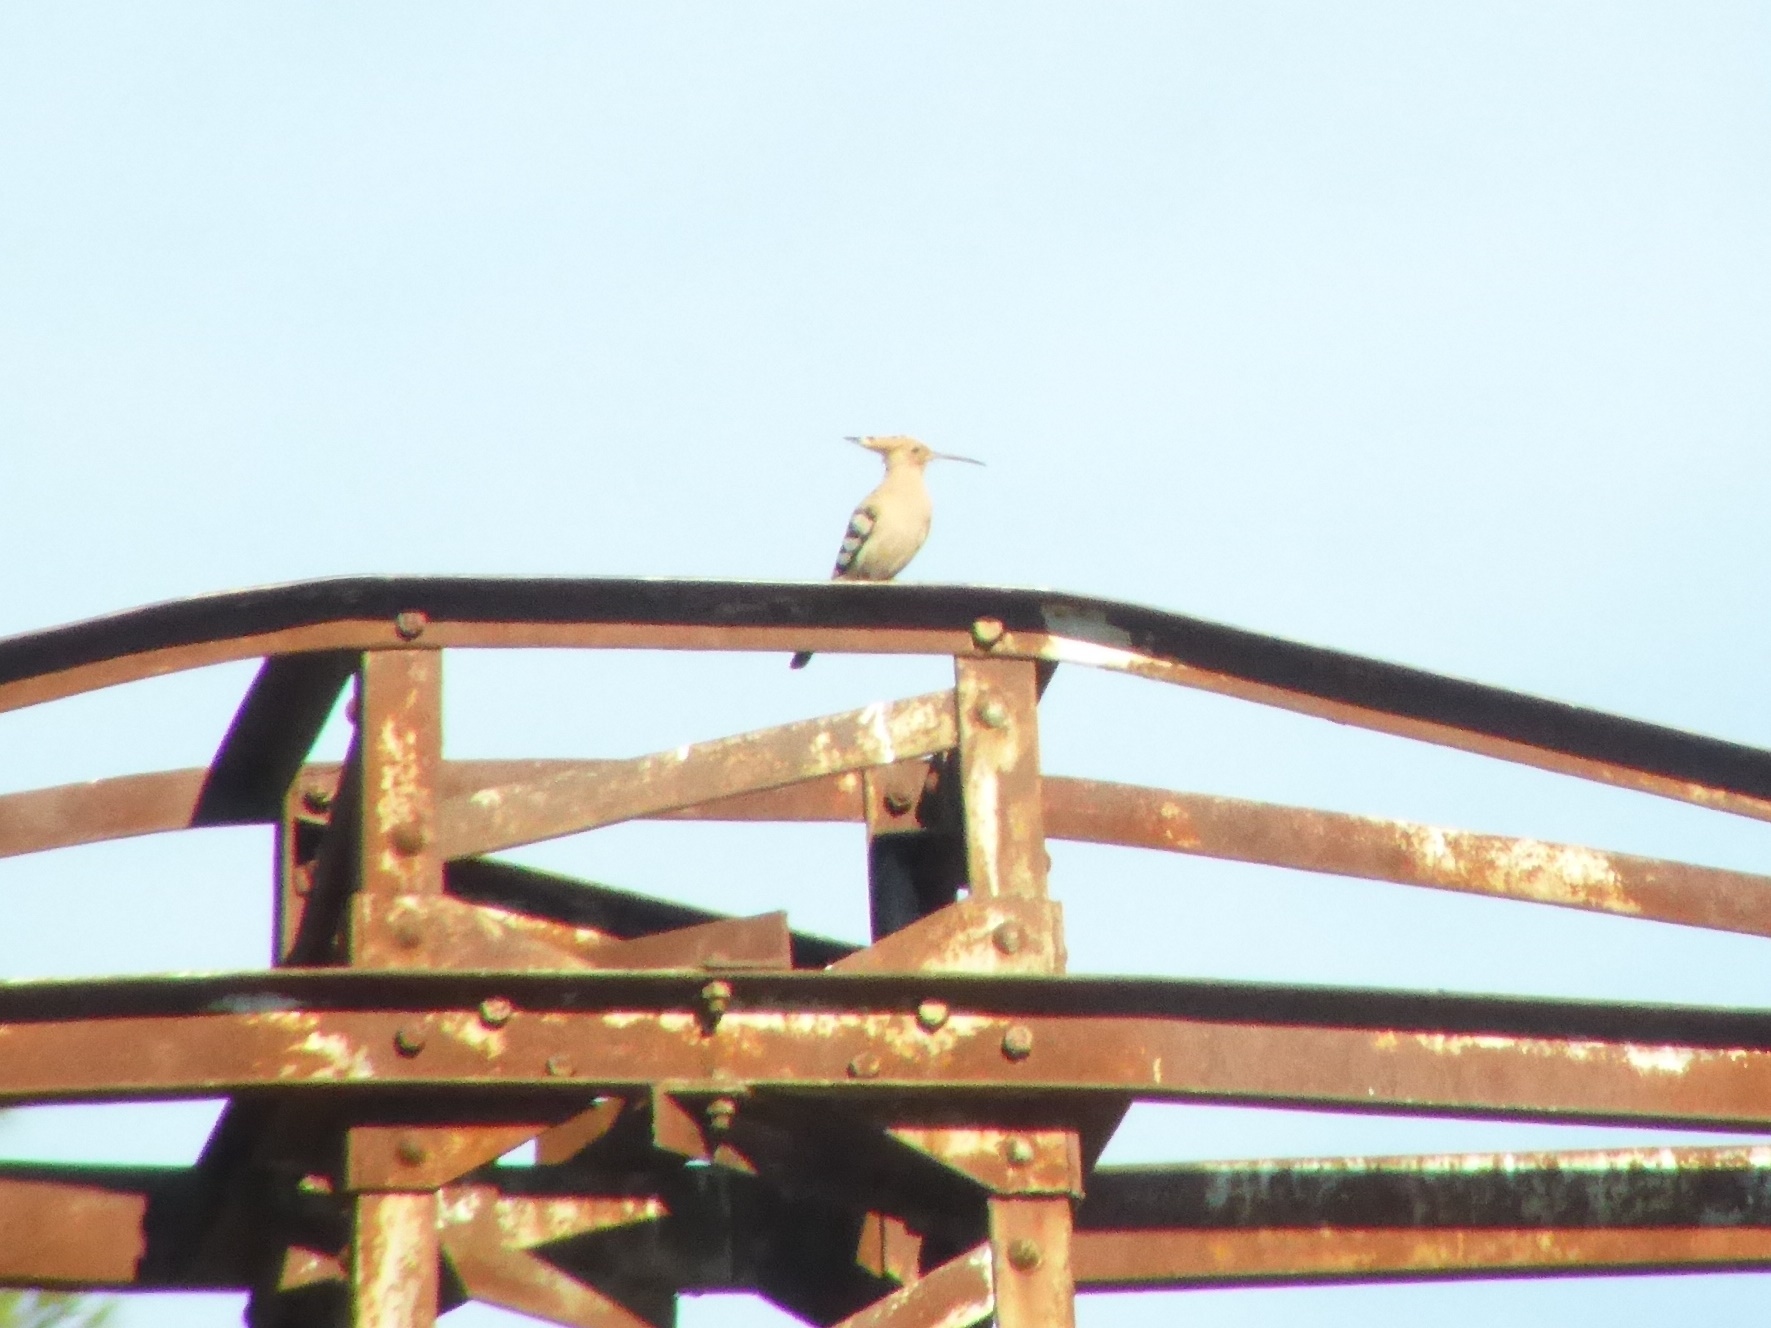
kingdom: Animalia
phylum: Chordata
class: Aves
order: Bucerotiformes
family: Upupidae
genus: Upupa
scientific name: Upupa epops
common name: Eurasian hoopoe
